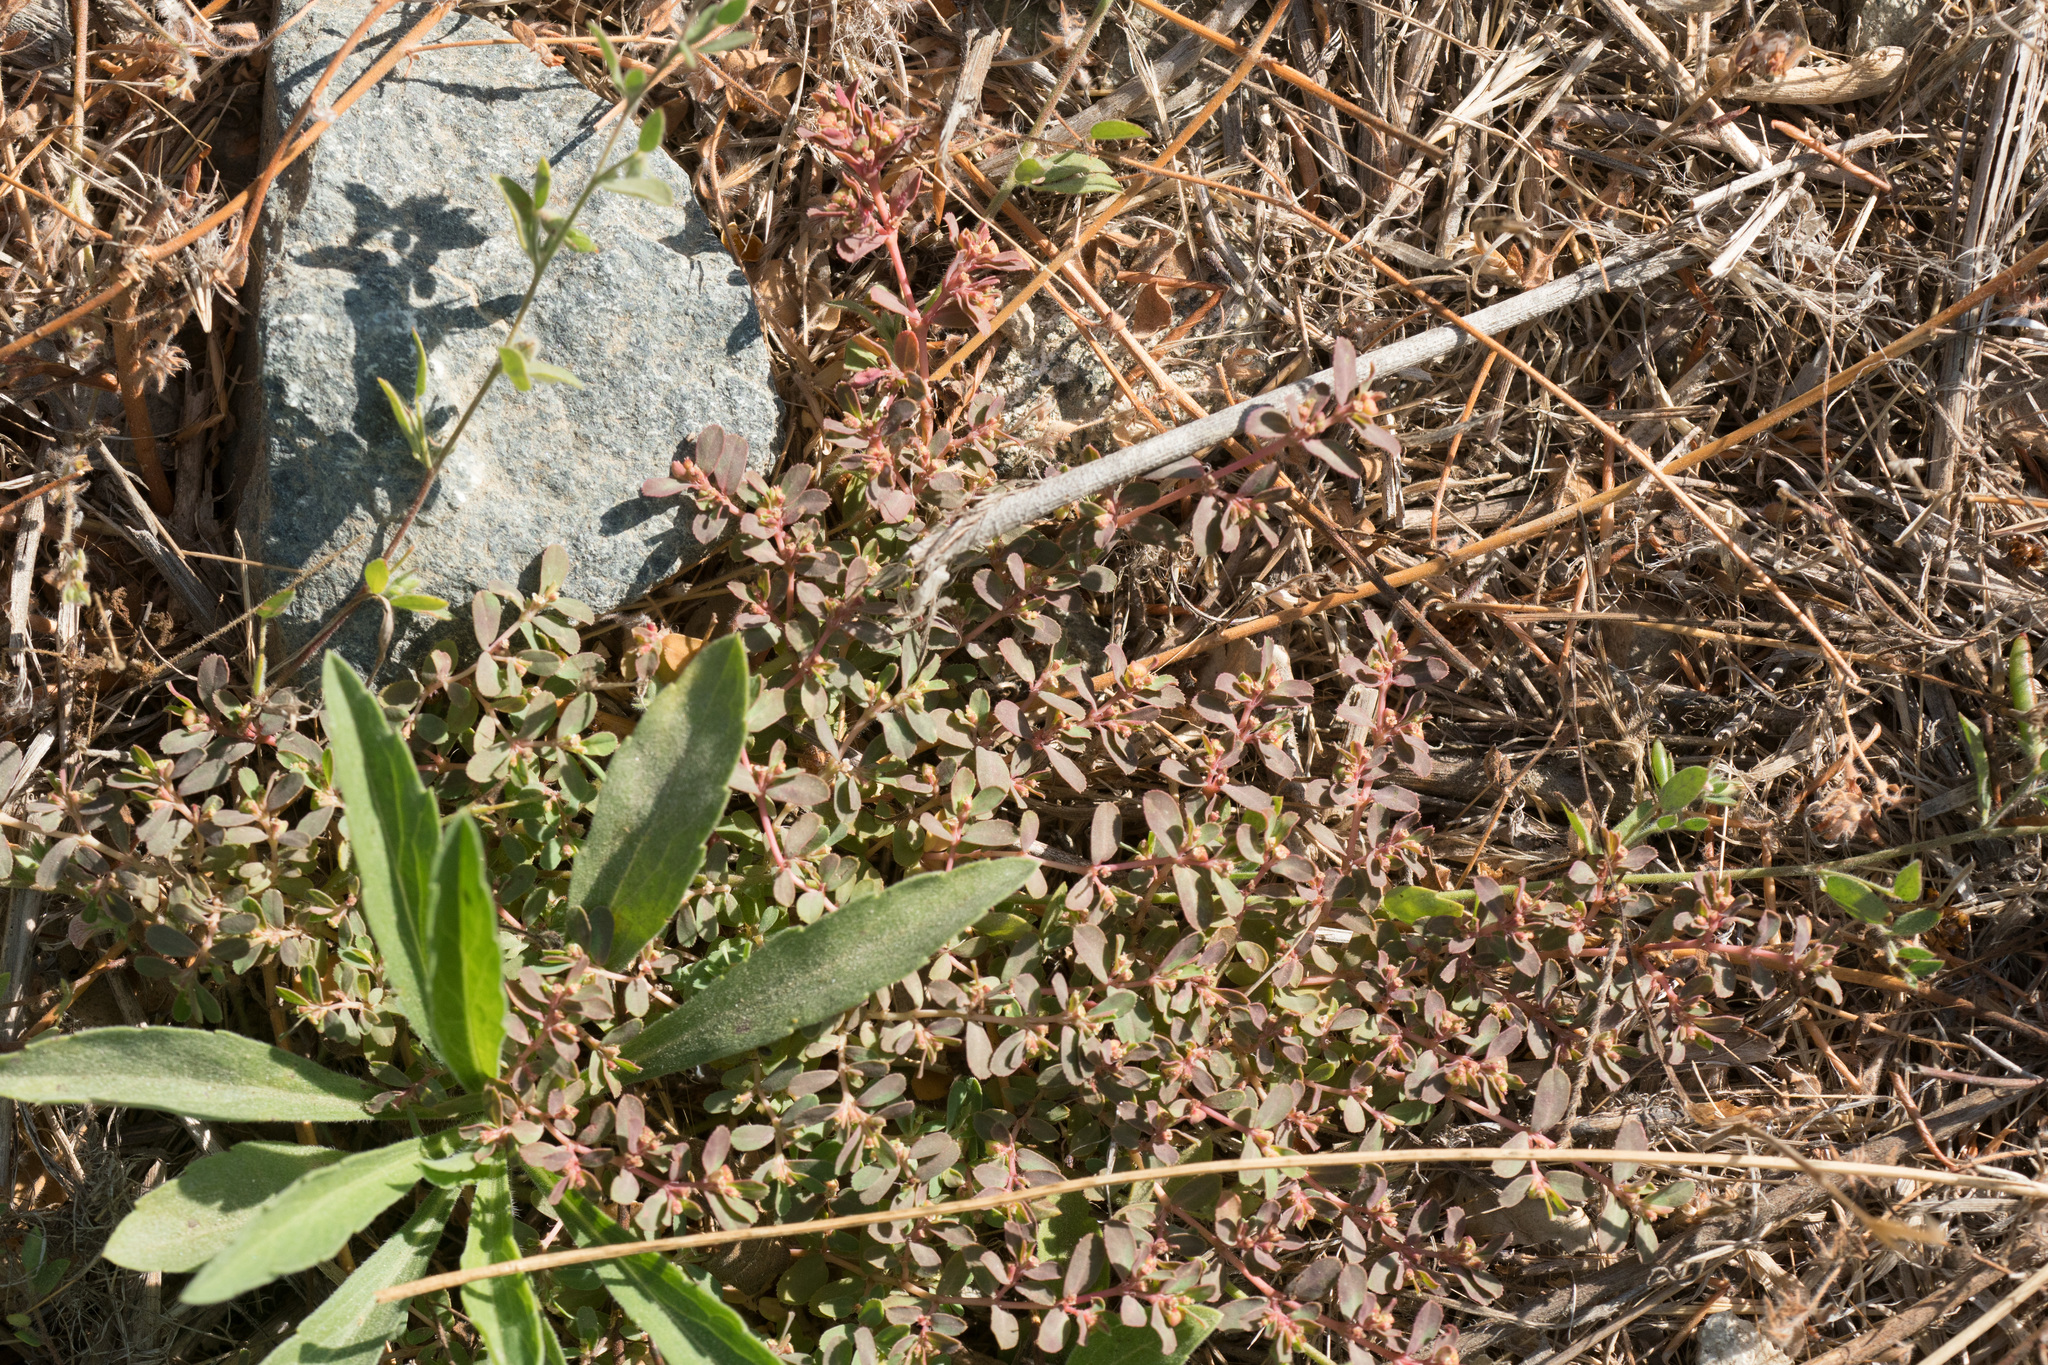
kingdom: Plantae
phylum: Tracheophyta
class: Magnoliopsida
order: Malpighiales
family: Euphorbiaceae
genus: Euphorbia
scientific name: Euphorbia serpillifolia
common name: Thyme-leaf spurge
